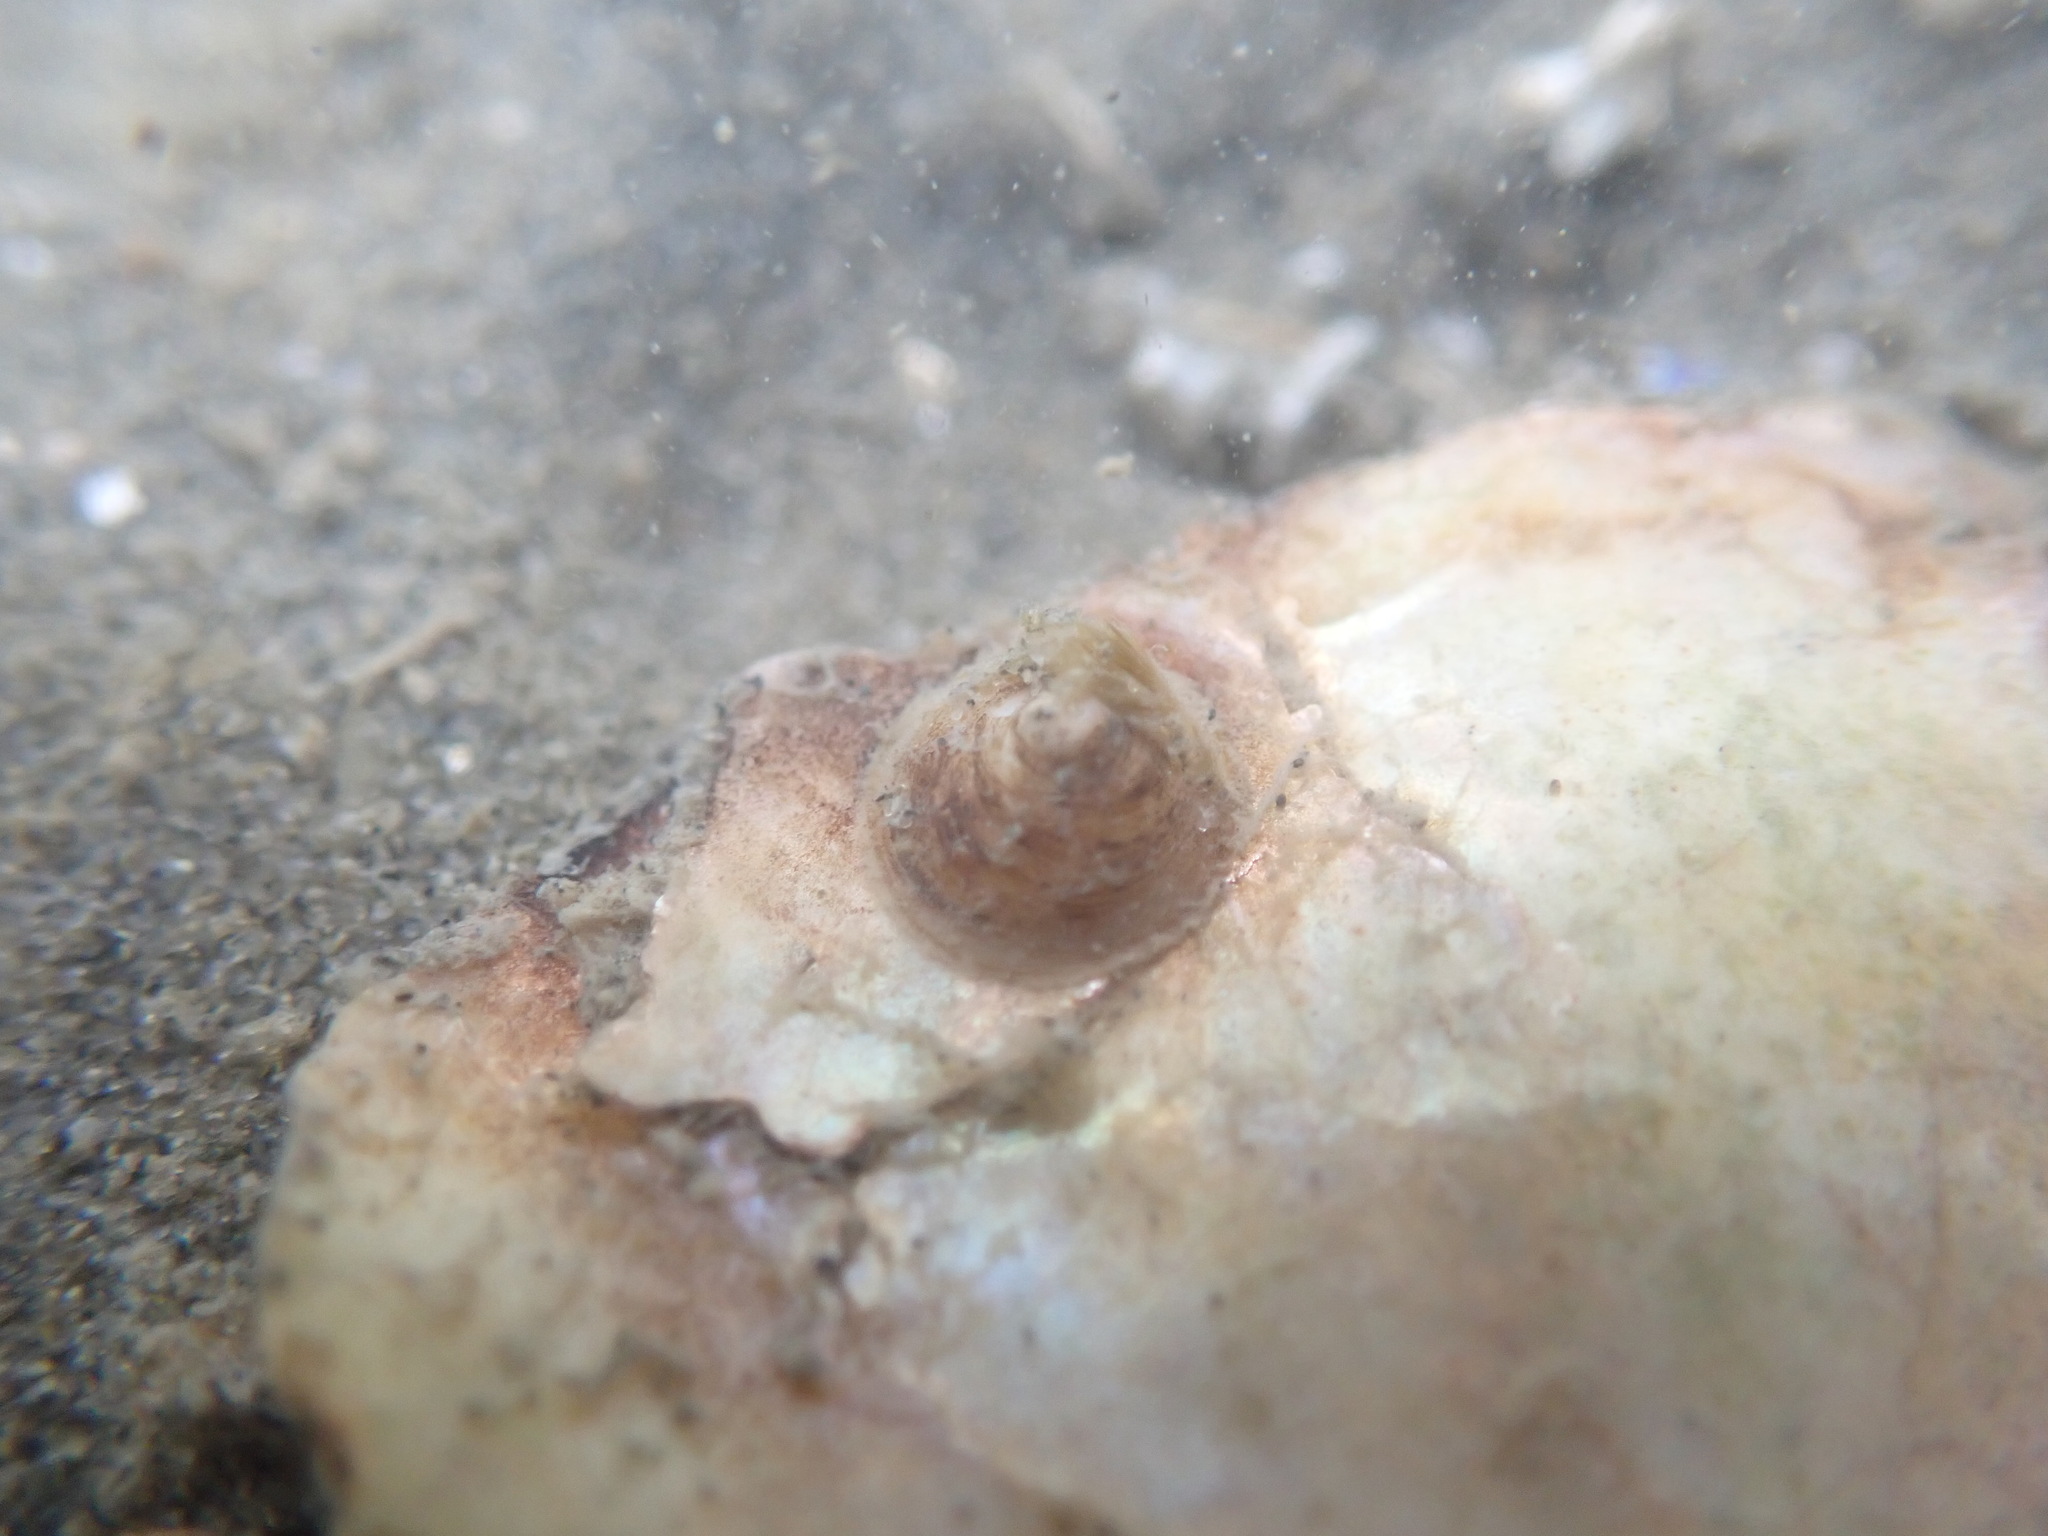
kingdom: Animalia
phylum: Mollusca
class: Gastropoda
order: Littorinimorpha
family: Calyptraeidae
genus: Sigapatella
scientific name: Sigapatella tenuis
